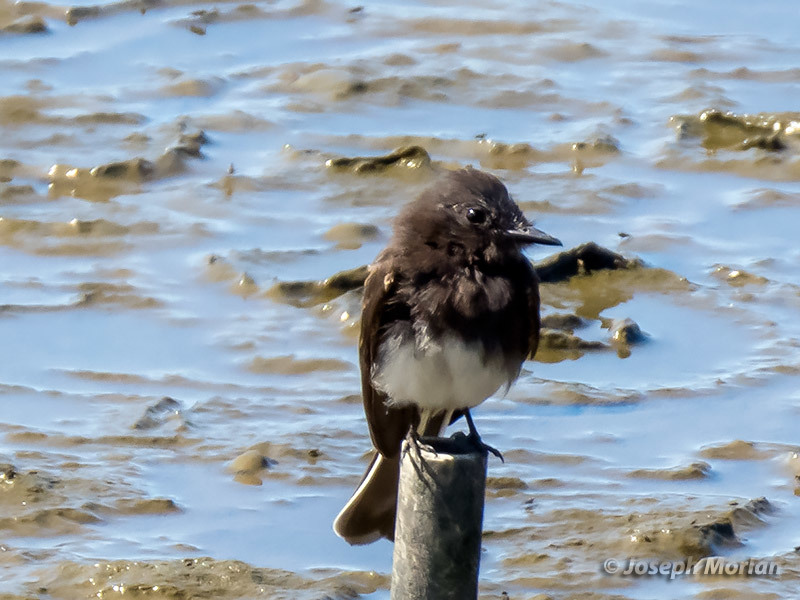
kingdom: Animalia
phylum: Chordata
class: Aves
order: Passeriformes
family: Tyrannidae
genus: Sayornis
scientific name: Sayornis nigricans
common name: Black phoebe
